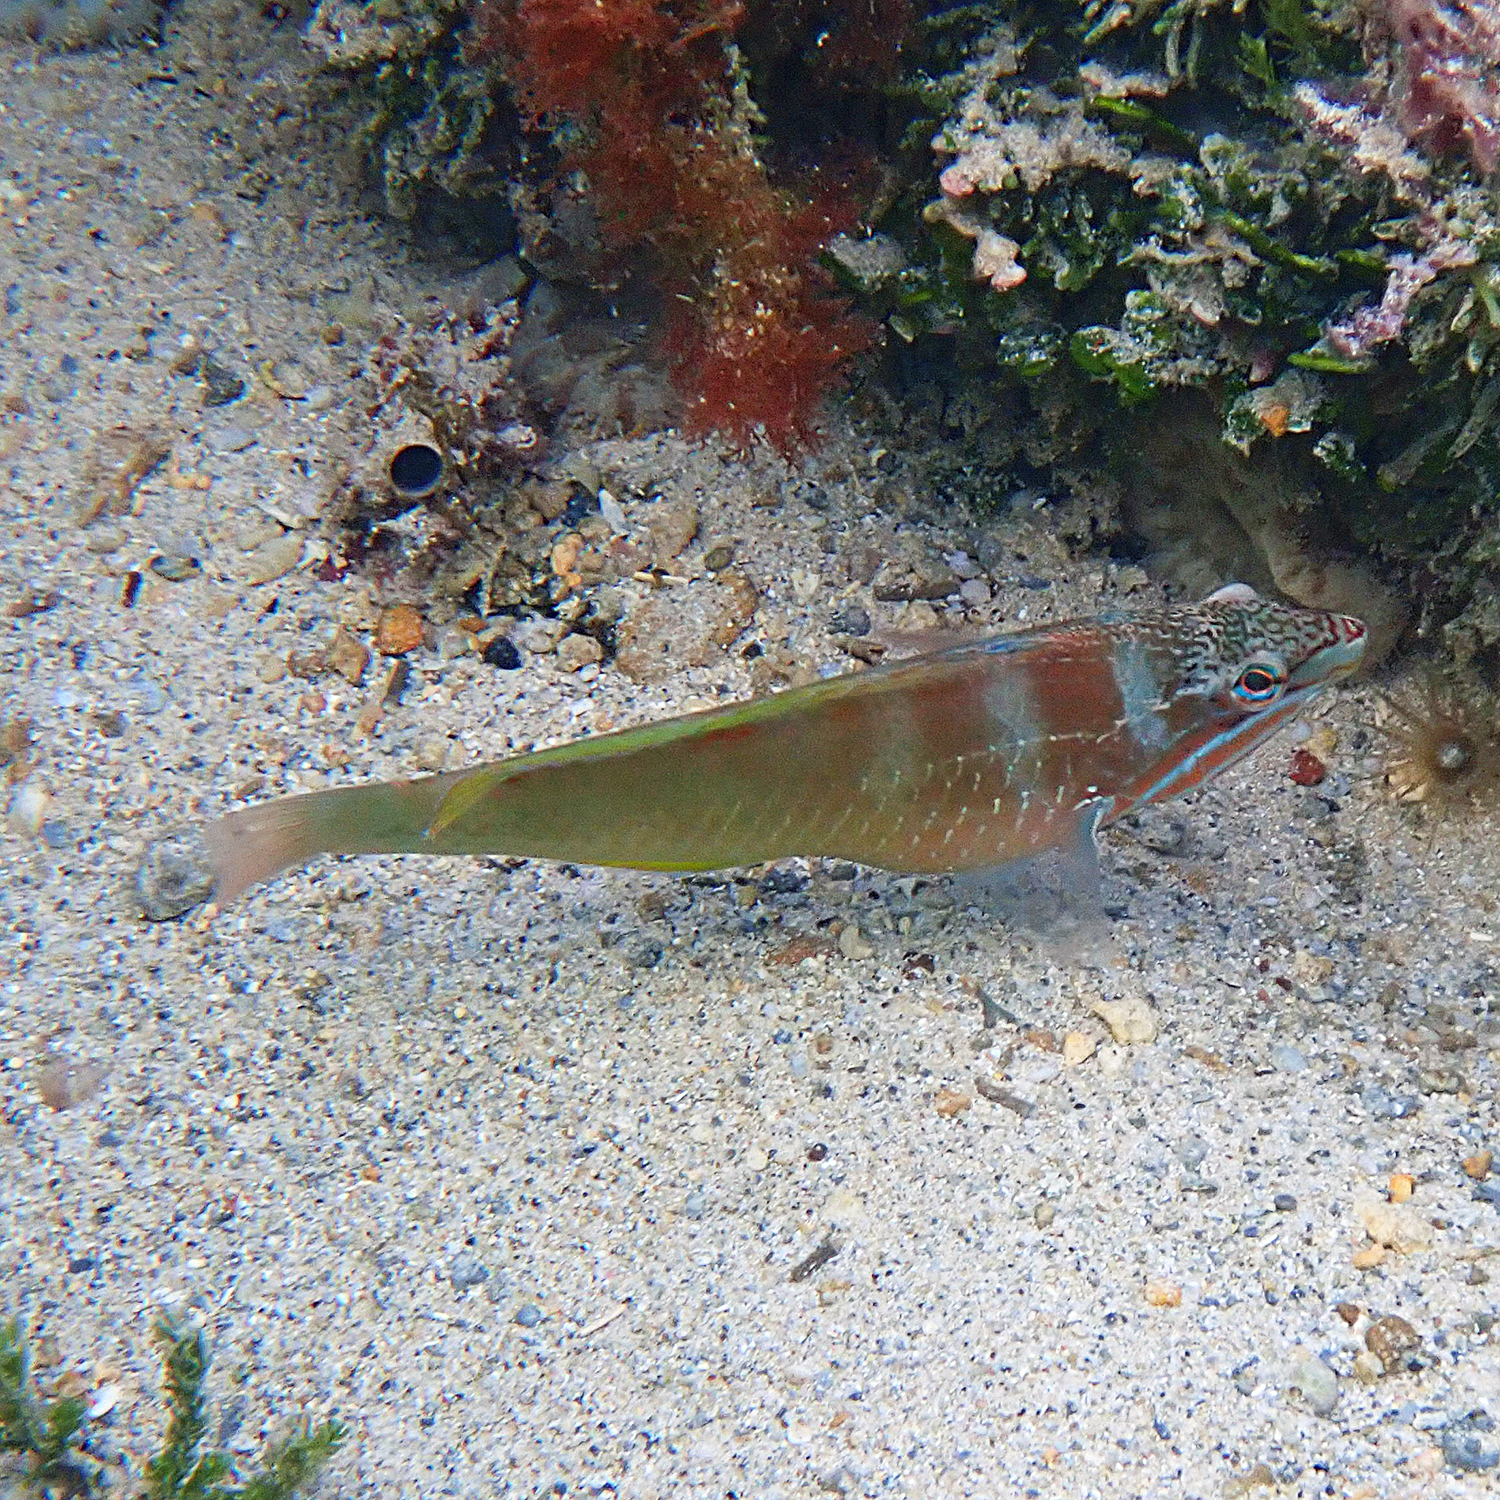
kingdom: Animalia
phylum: Chordata
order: Perciformes
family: Labridae
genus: Pseudolabrus
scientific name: Pseudolabrus luculentus
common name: Luculentus wrasse
